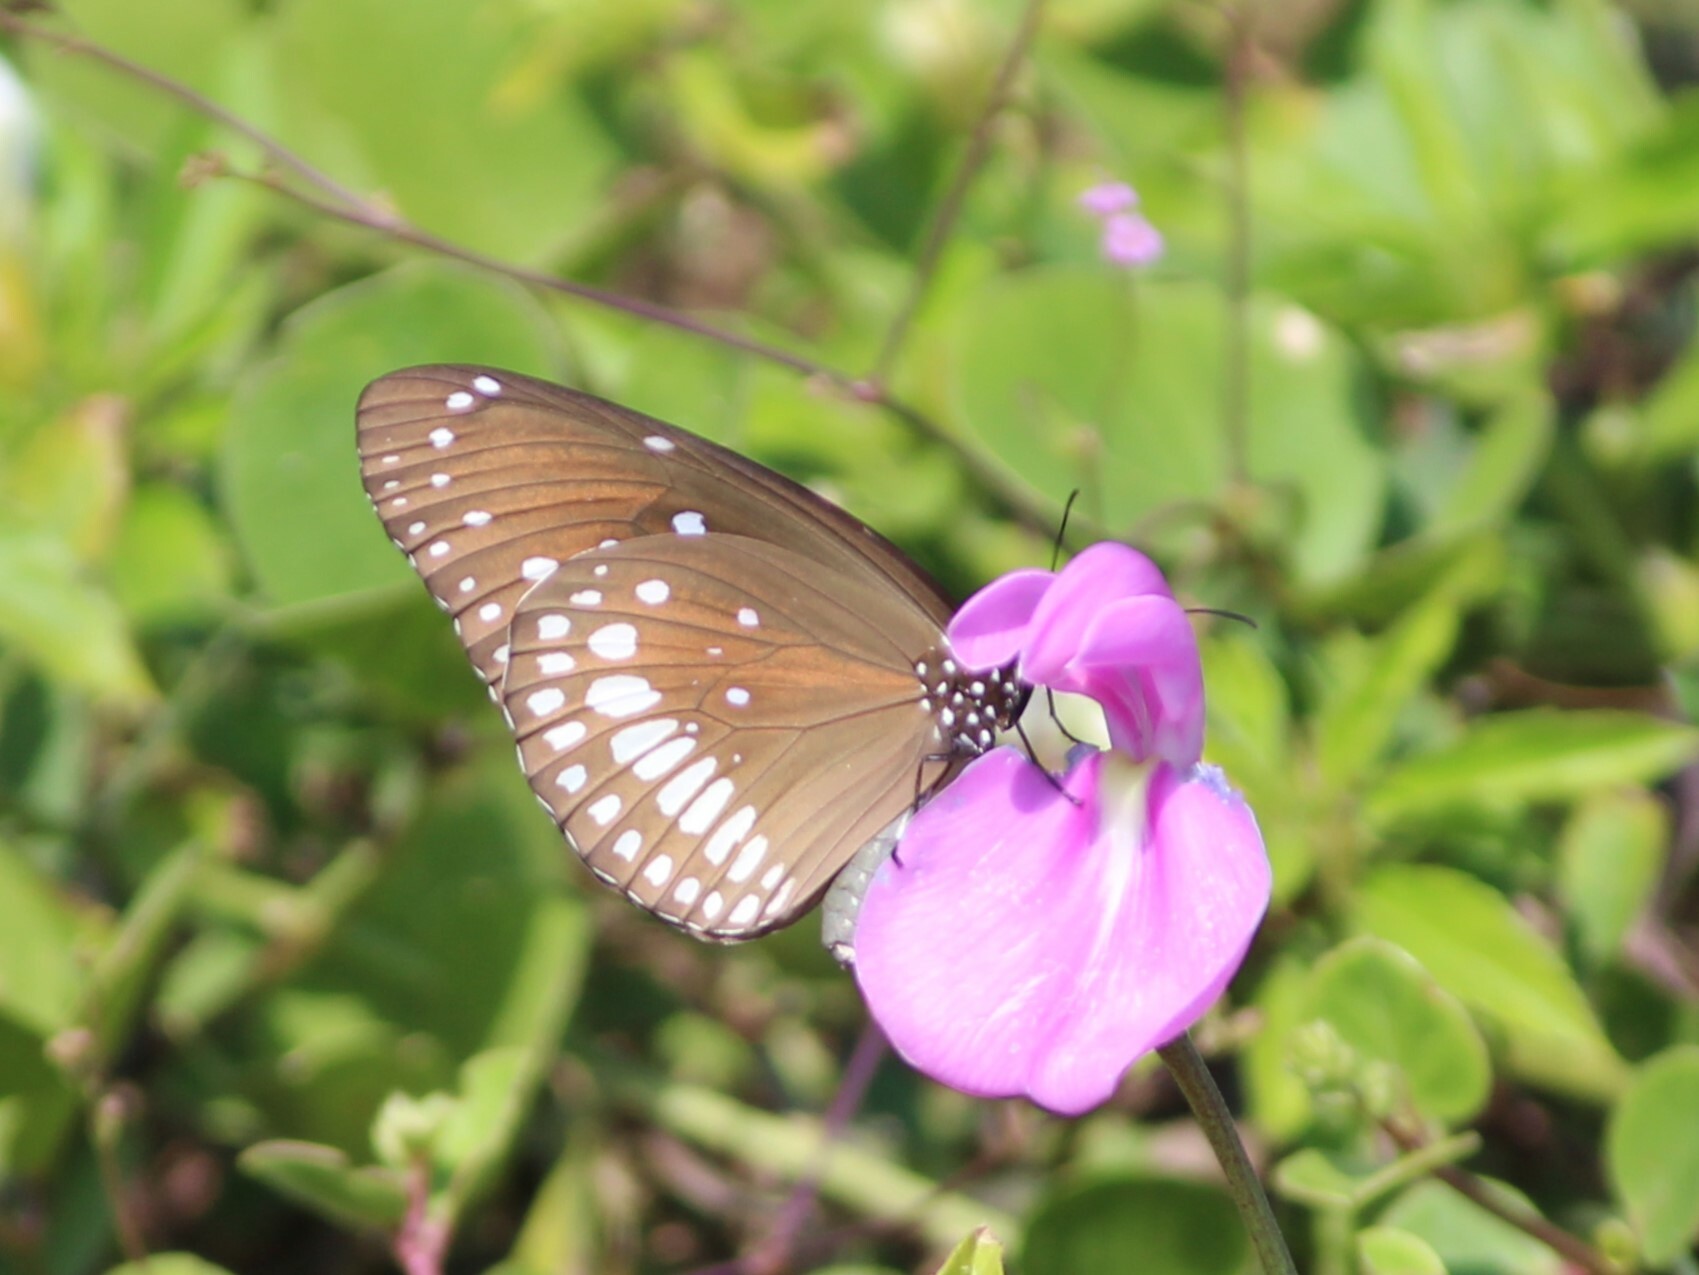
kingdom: Animalia
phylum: Arthropoda
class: Insecta
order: Lepidoptera
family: Nymphalidae
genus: Euploea
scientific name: Euploea core
